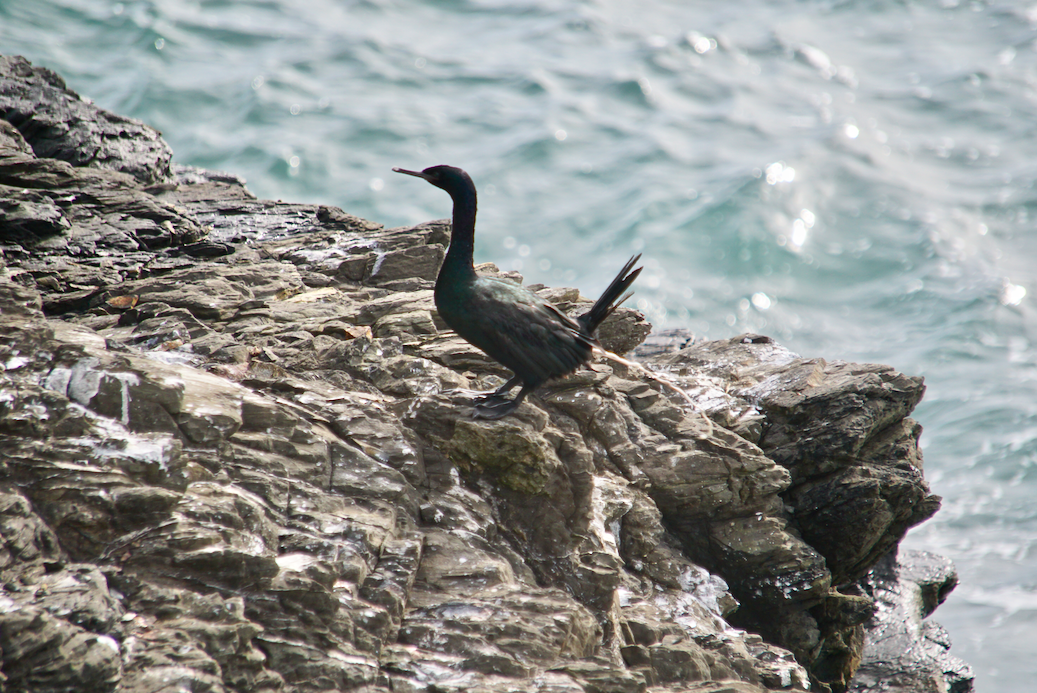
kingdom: Animalia
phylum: Chordata
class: Aves
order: Suliformes
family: Phalacrocoracidae
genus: Phalacrocorax
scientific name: Phalacrocorax pelagicus
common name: Pelagic cormorant
